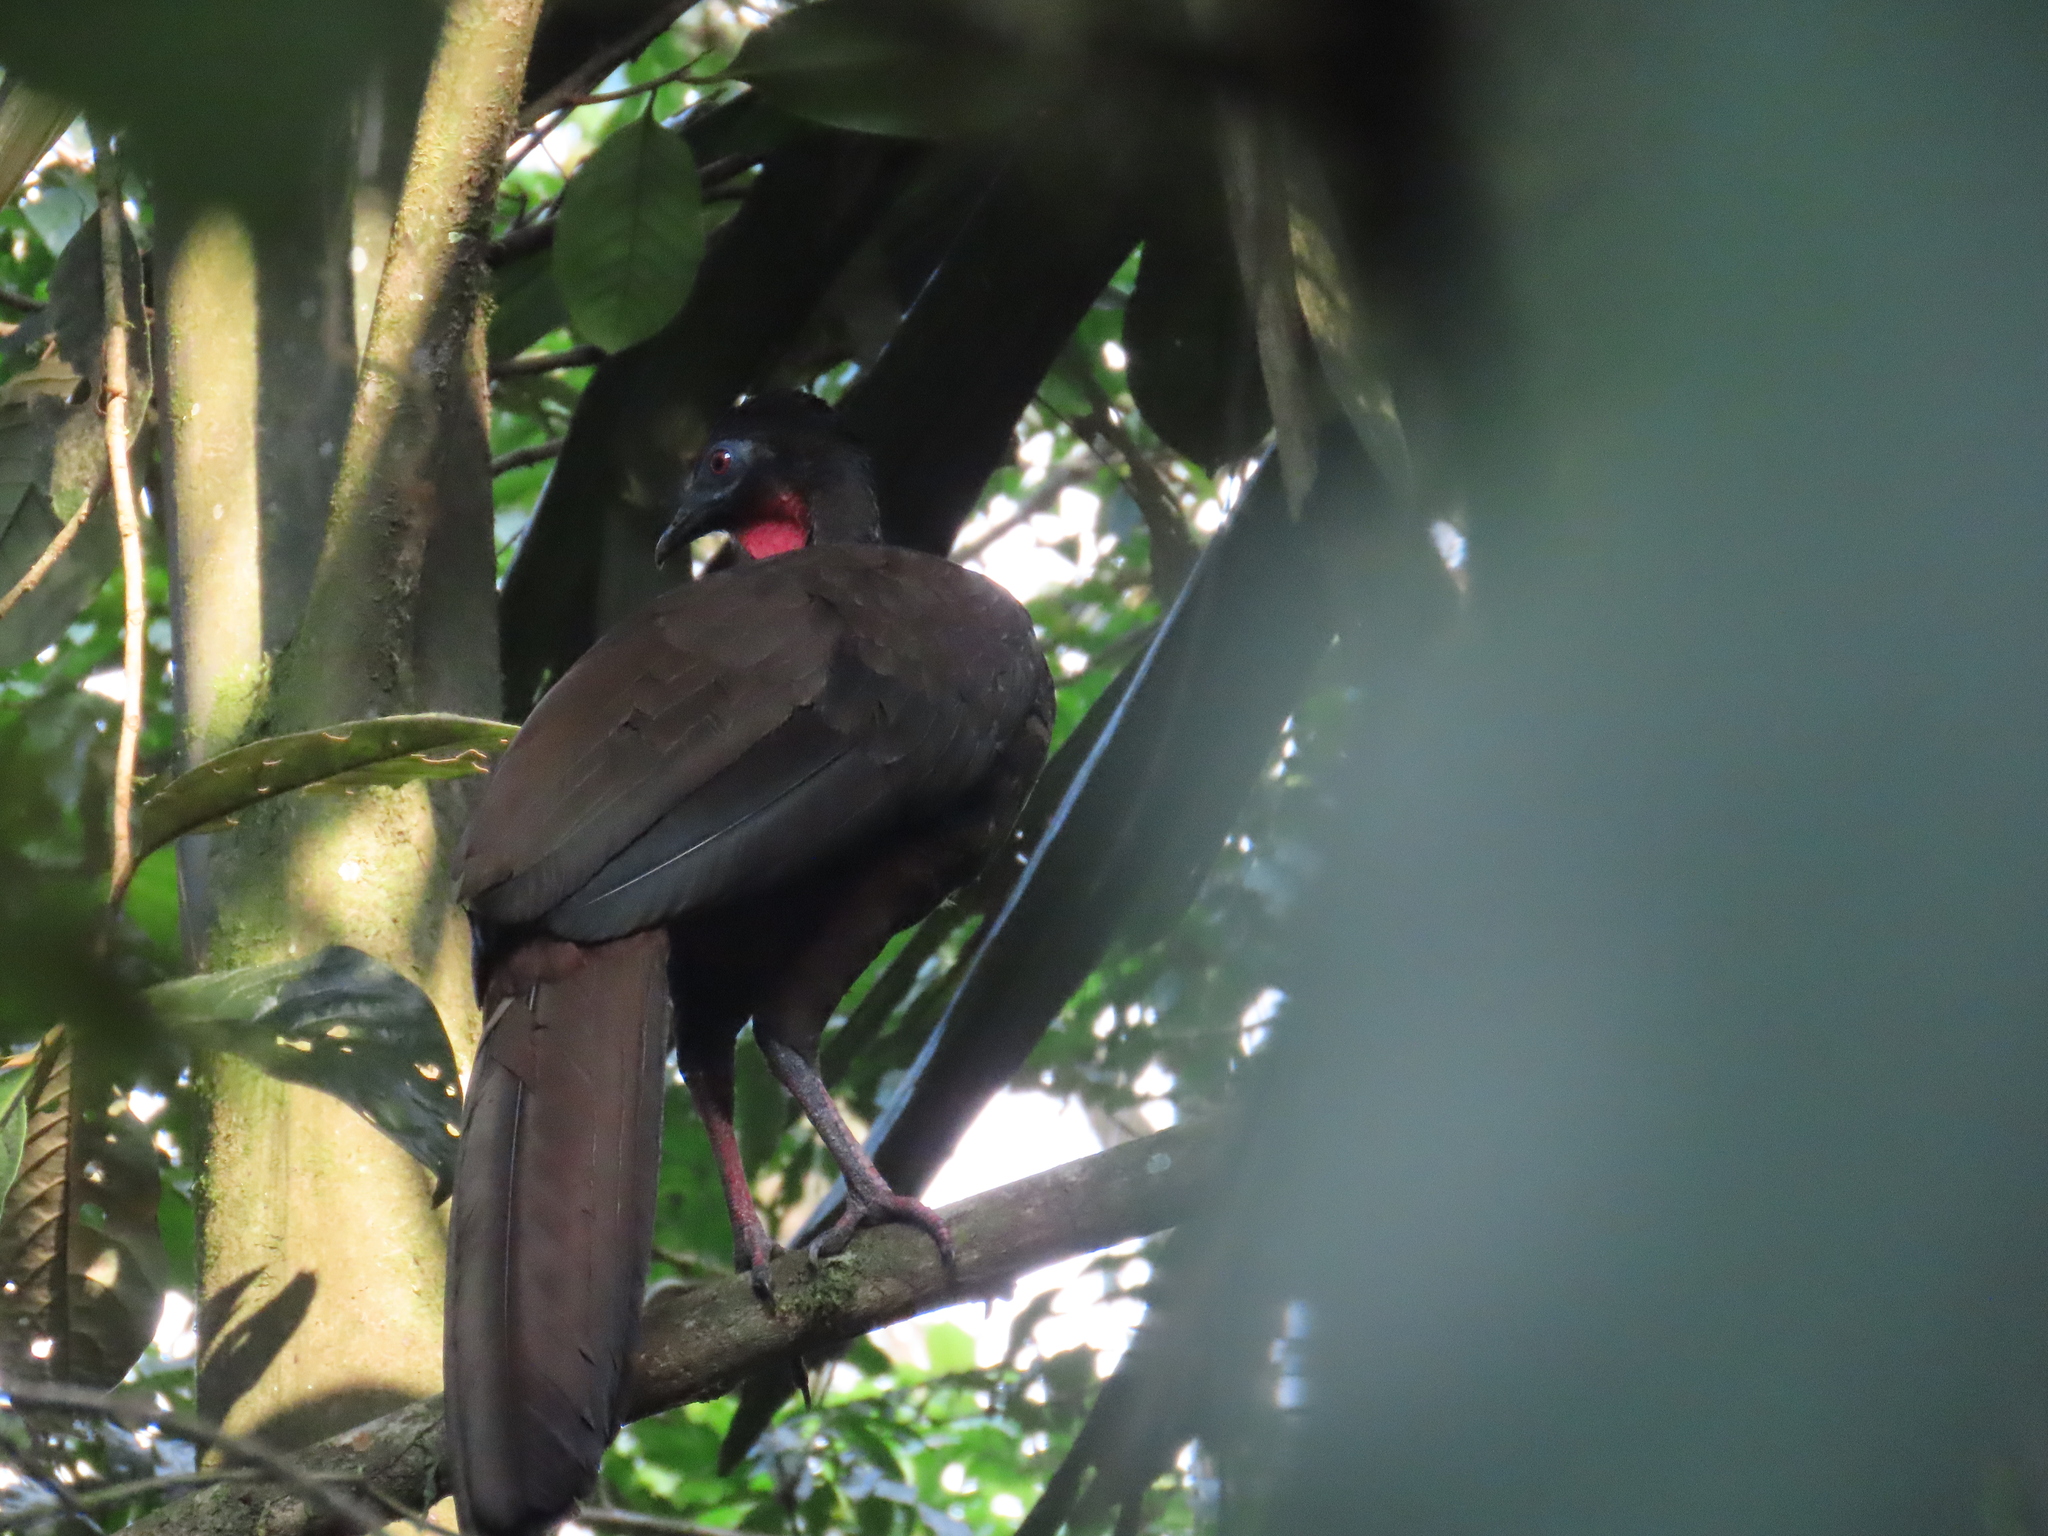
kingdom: Animalia
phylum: Chordata
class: Aves
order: Galliformes
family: Cracidae
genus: Penelope
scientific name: Penelope purpurascens
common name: Crested guan
